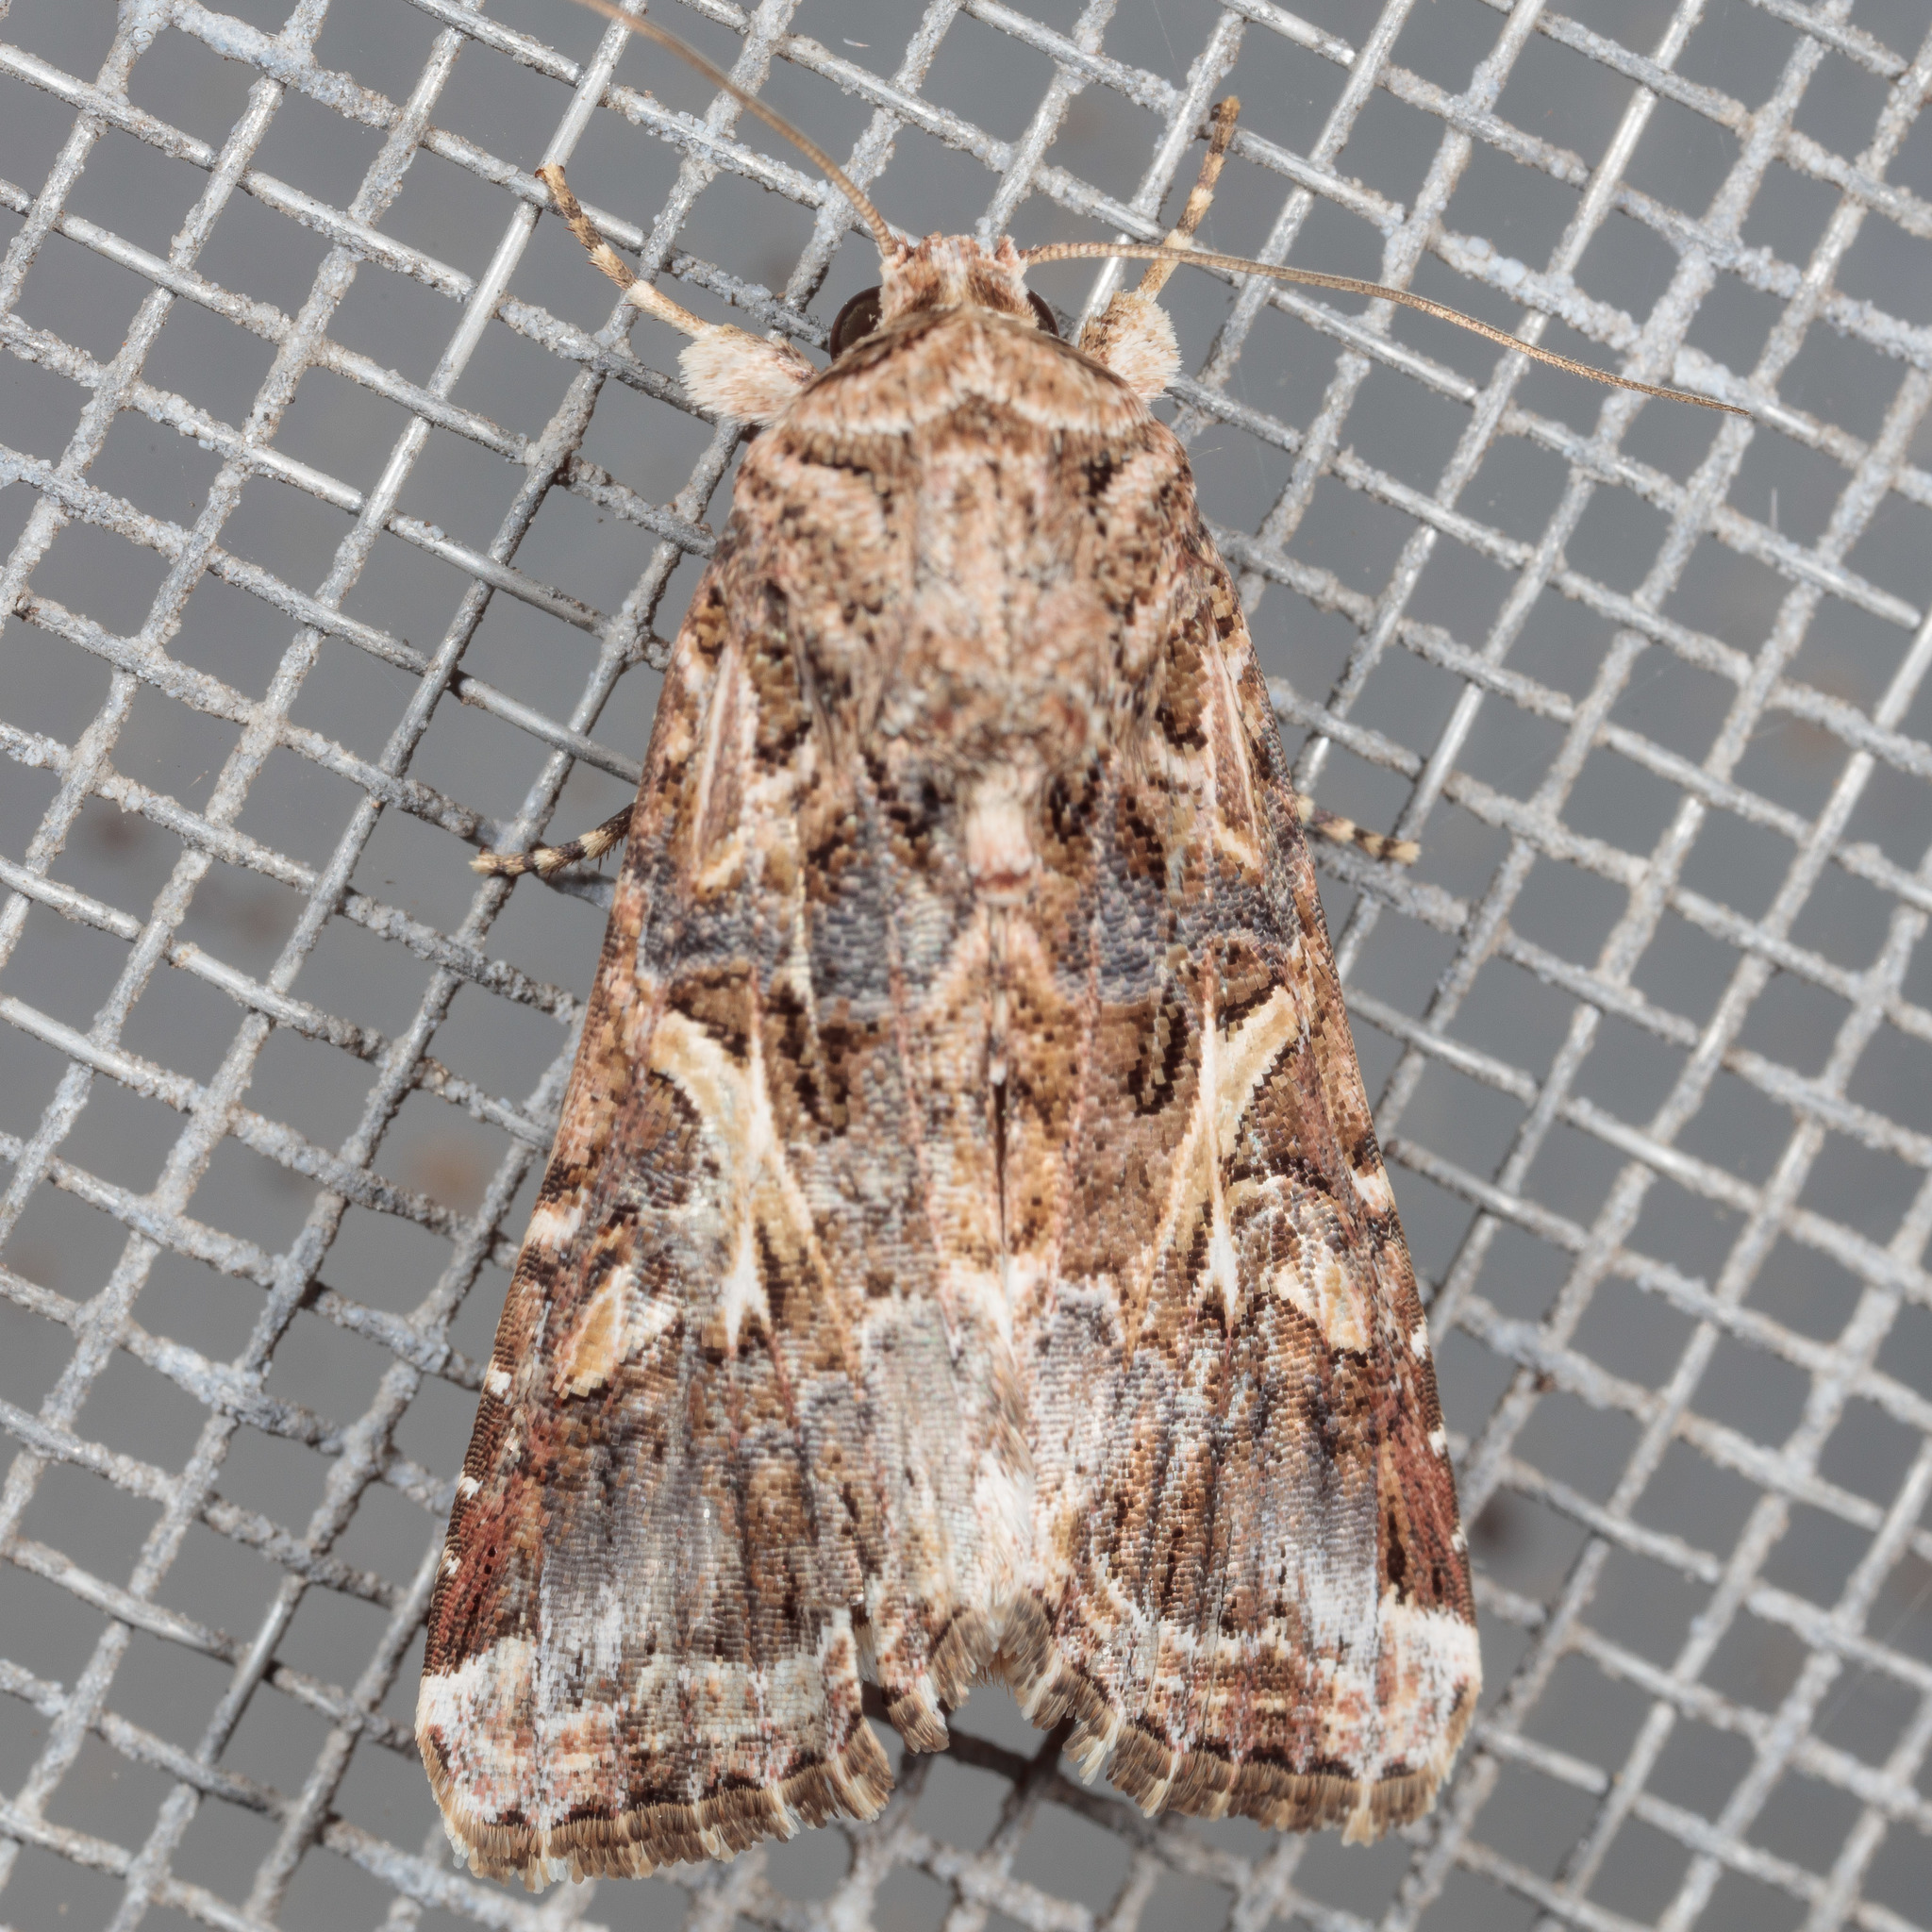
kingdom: Animalia
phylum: Arthropoda
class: Insecta
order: Lepidoptera
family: Noctuidae
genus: Spodoptera
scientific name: Spodoptera ornithogalli
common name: Yellow-striped armyworm
